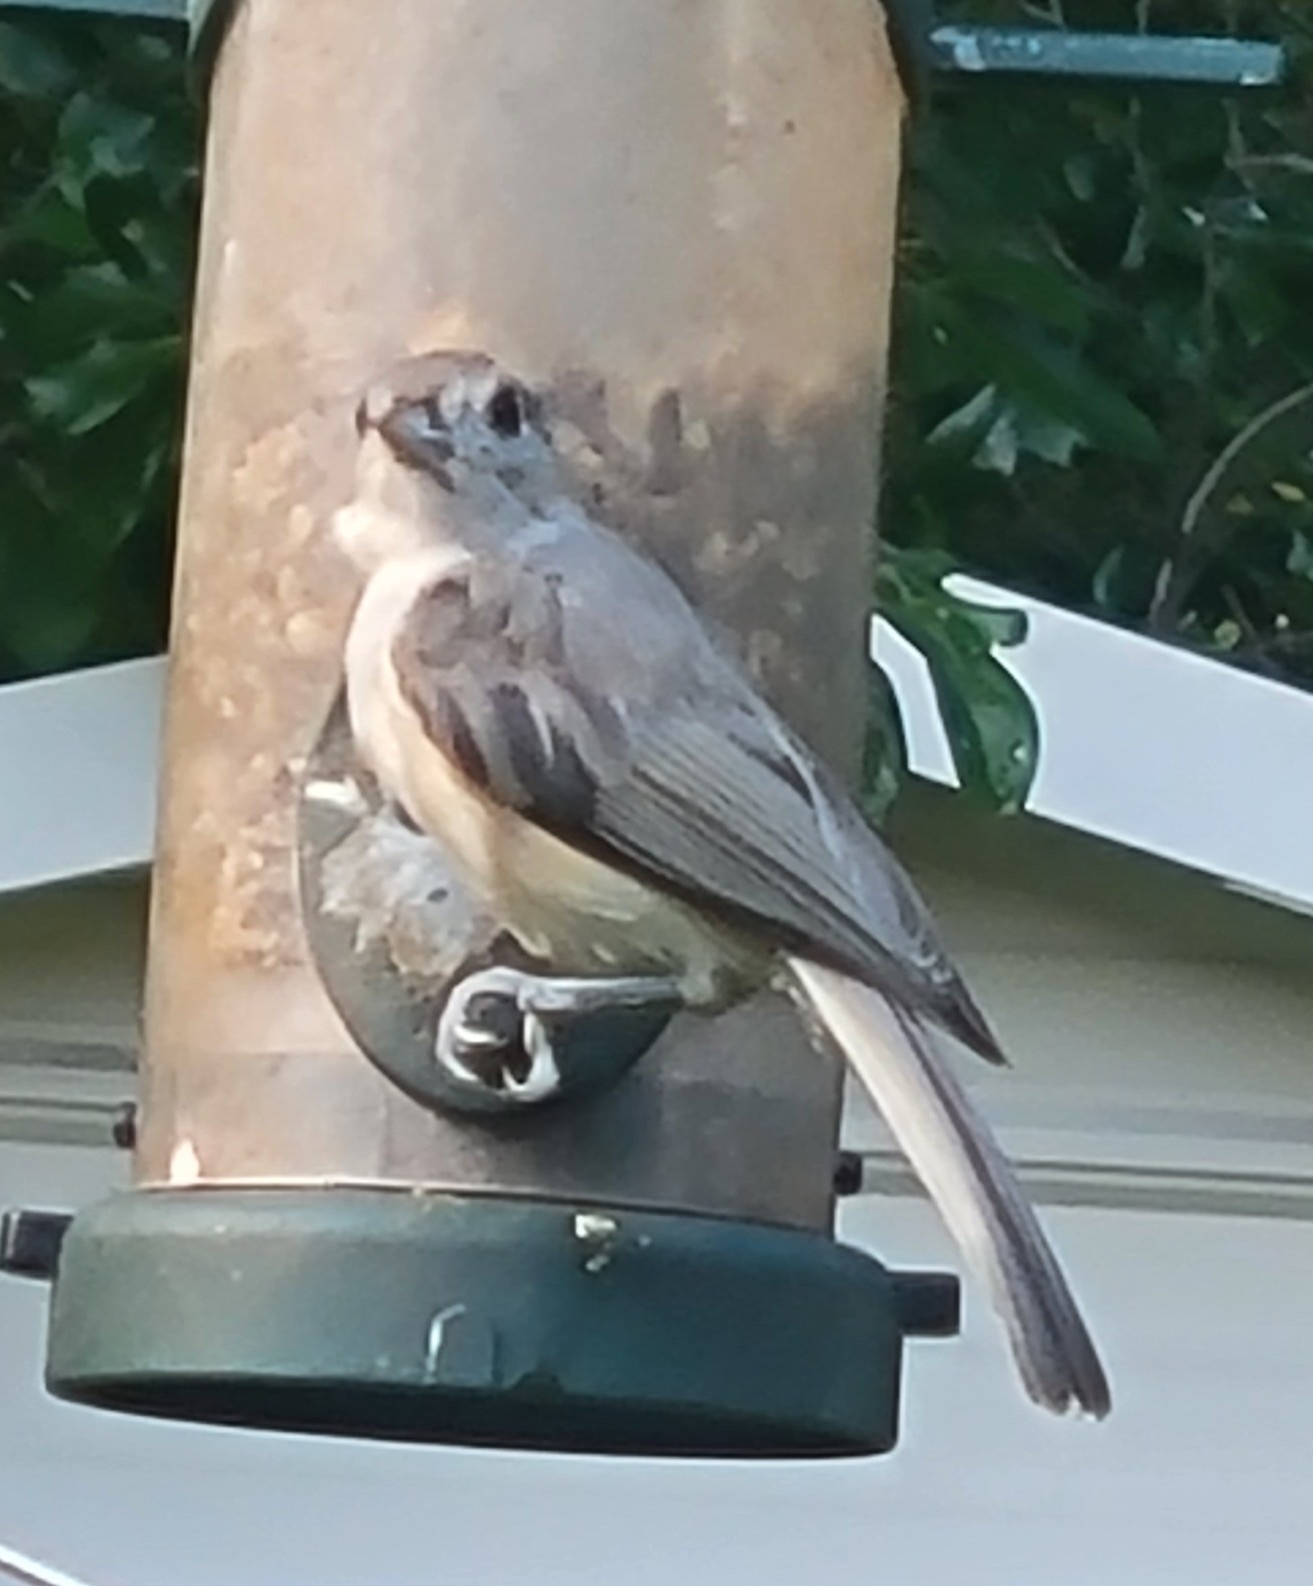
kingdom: Animalia
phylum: Chordata
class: Aves
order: Passeriformes
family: Paridae
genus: Baeolophus
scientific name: Baeolophus bicolor
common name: Tufted titmouse
